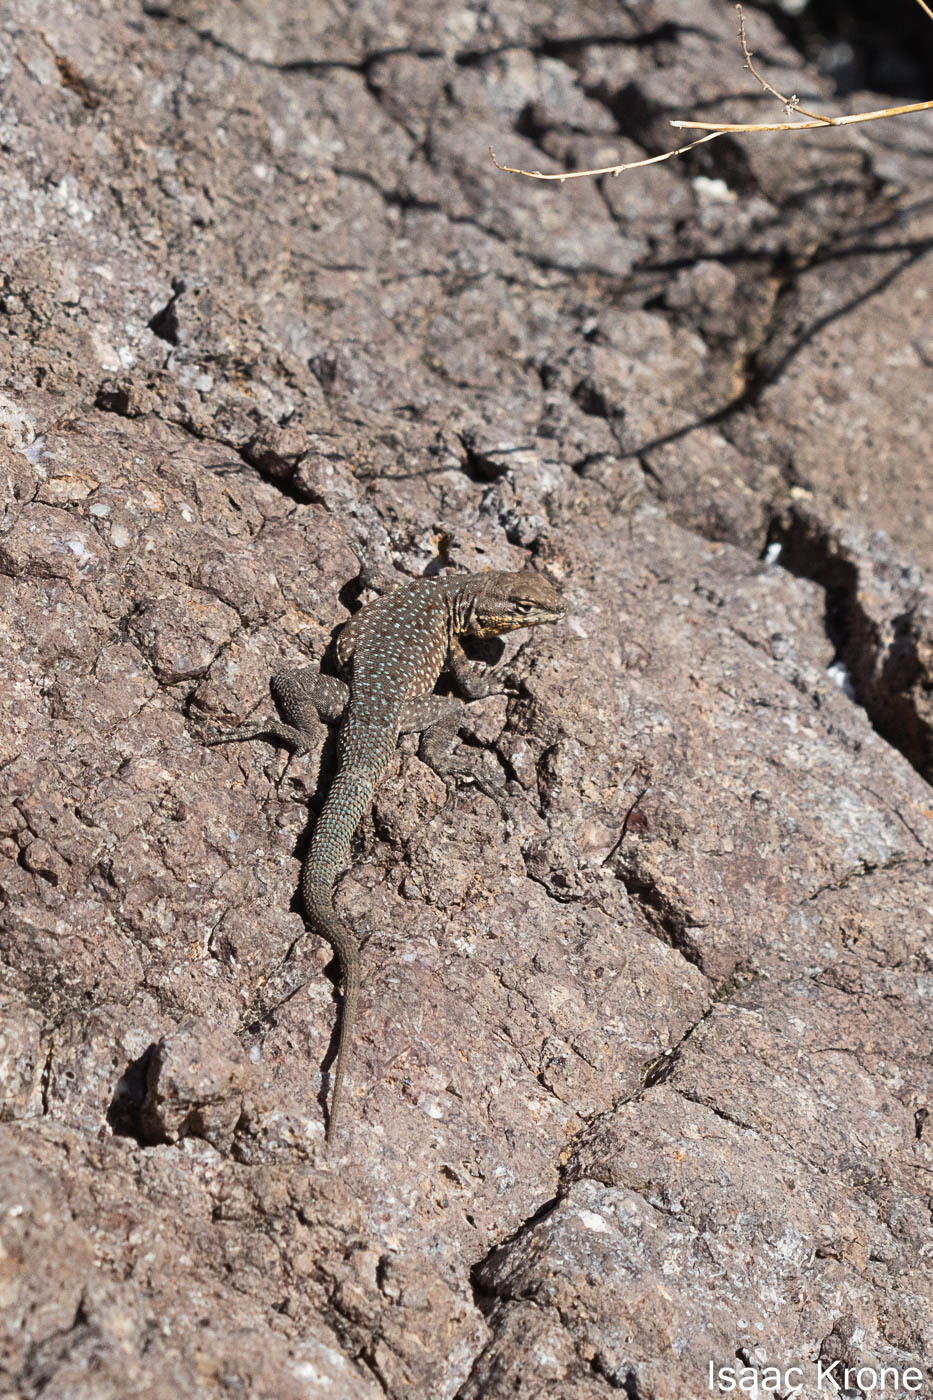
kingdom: Animalia
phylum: Chordata
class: Squamata
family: Phrynosomatidae
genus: Uta
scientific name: Uta stansburiana
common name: Side-blotched lizard
